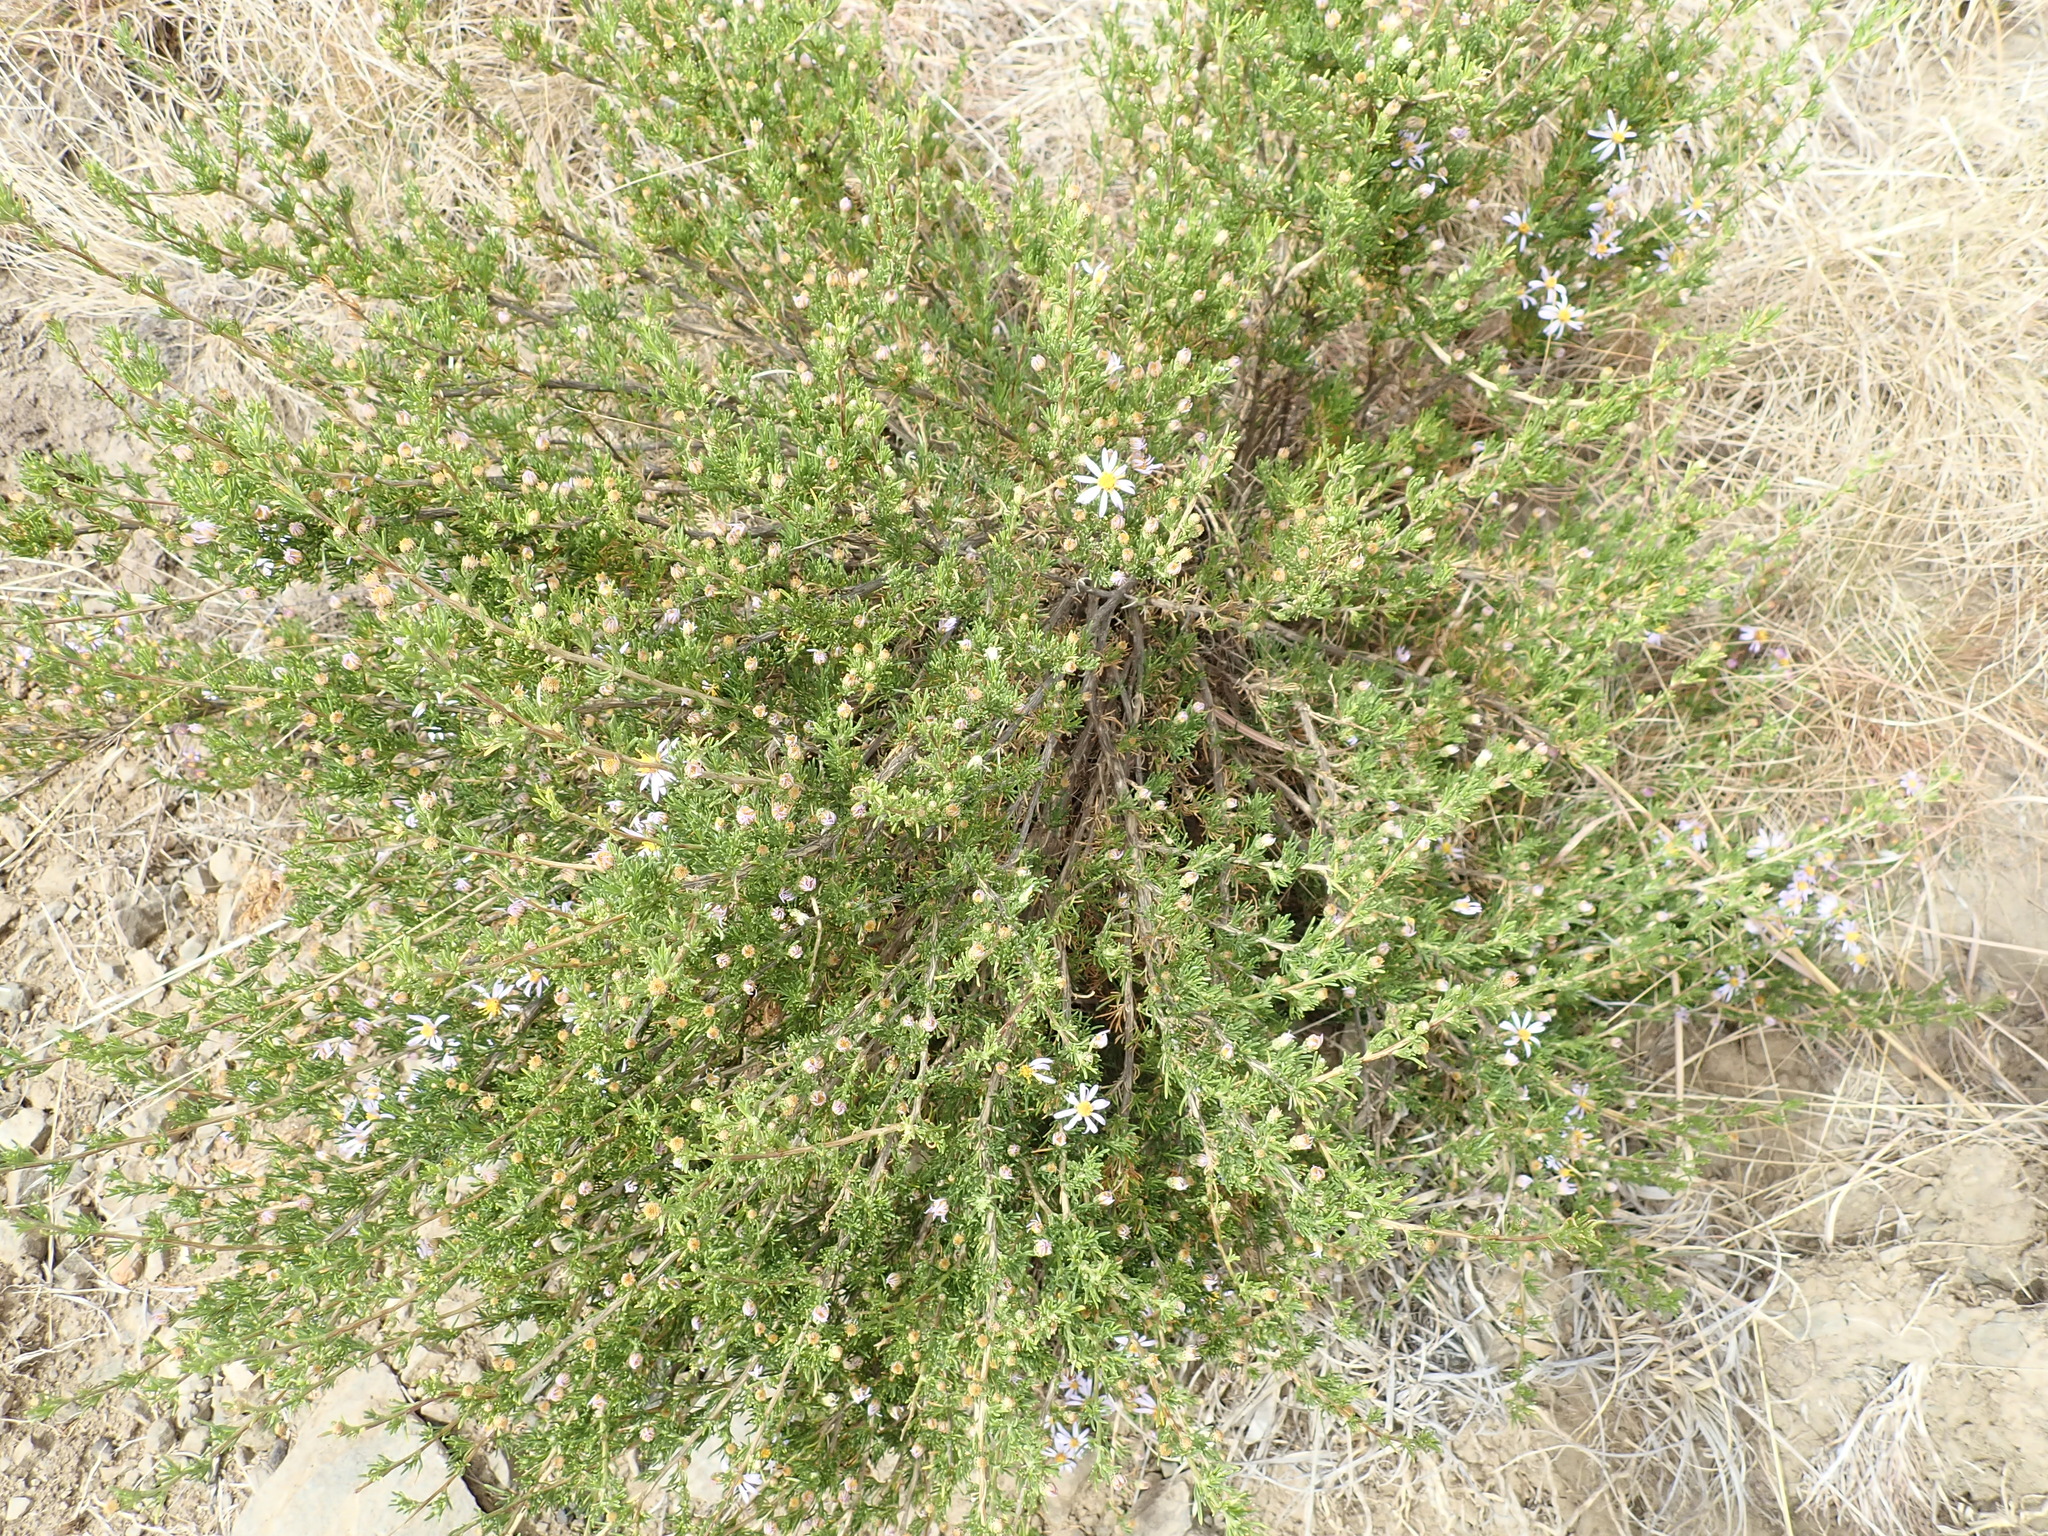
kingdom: Plantae
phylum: Tracheophyta
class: Magnoliopsida
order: Asterales
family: Asteraceae
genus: Felicia
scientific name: Felicia filifolia
